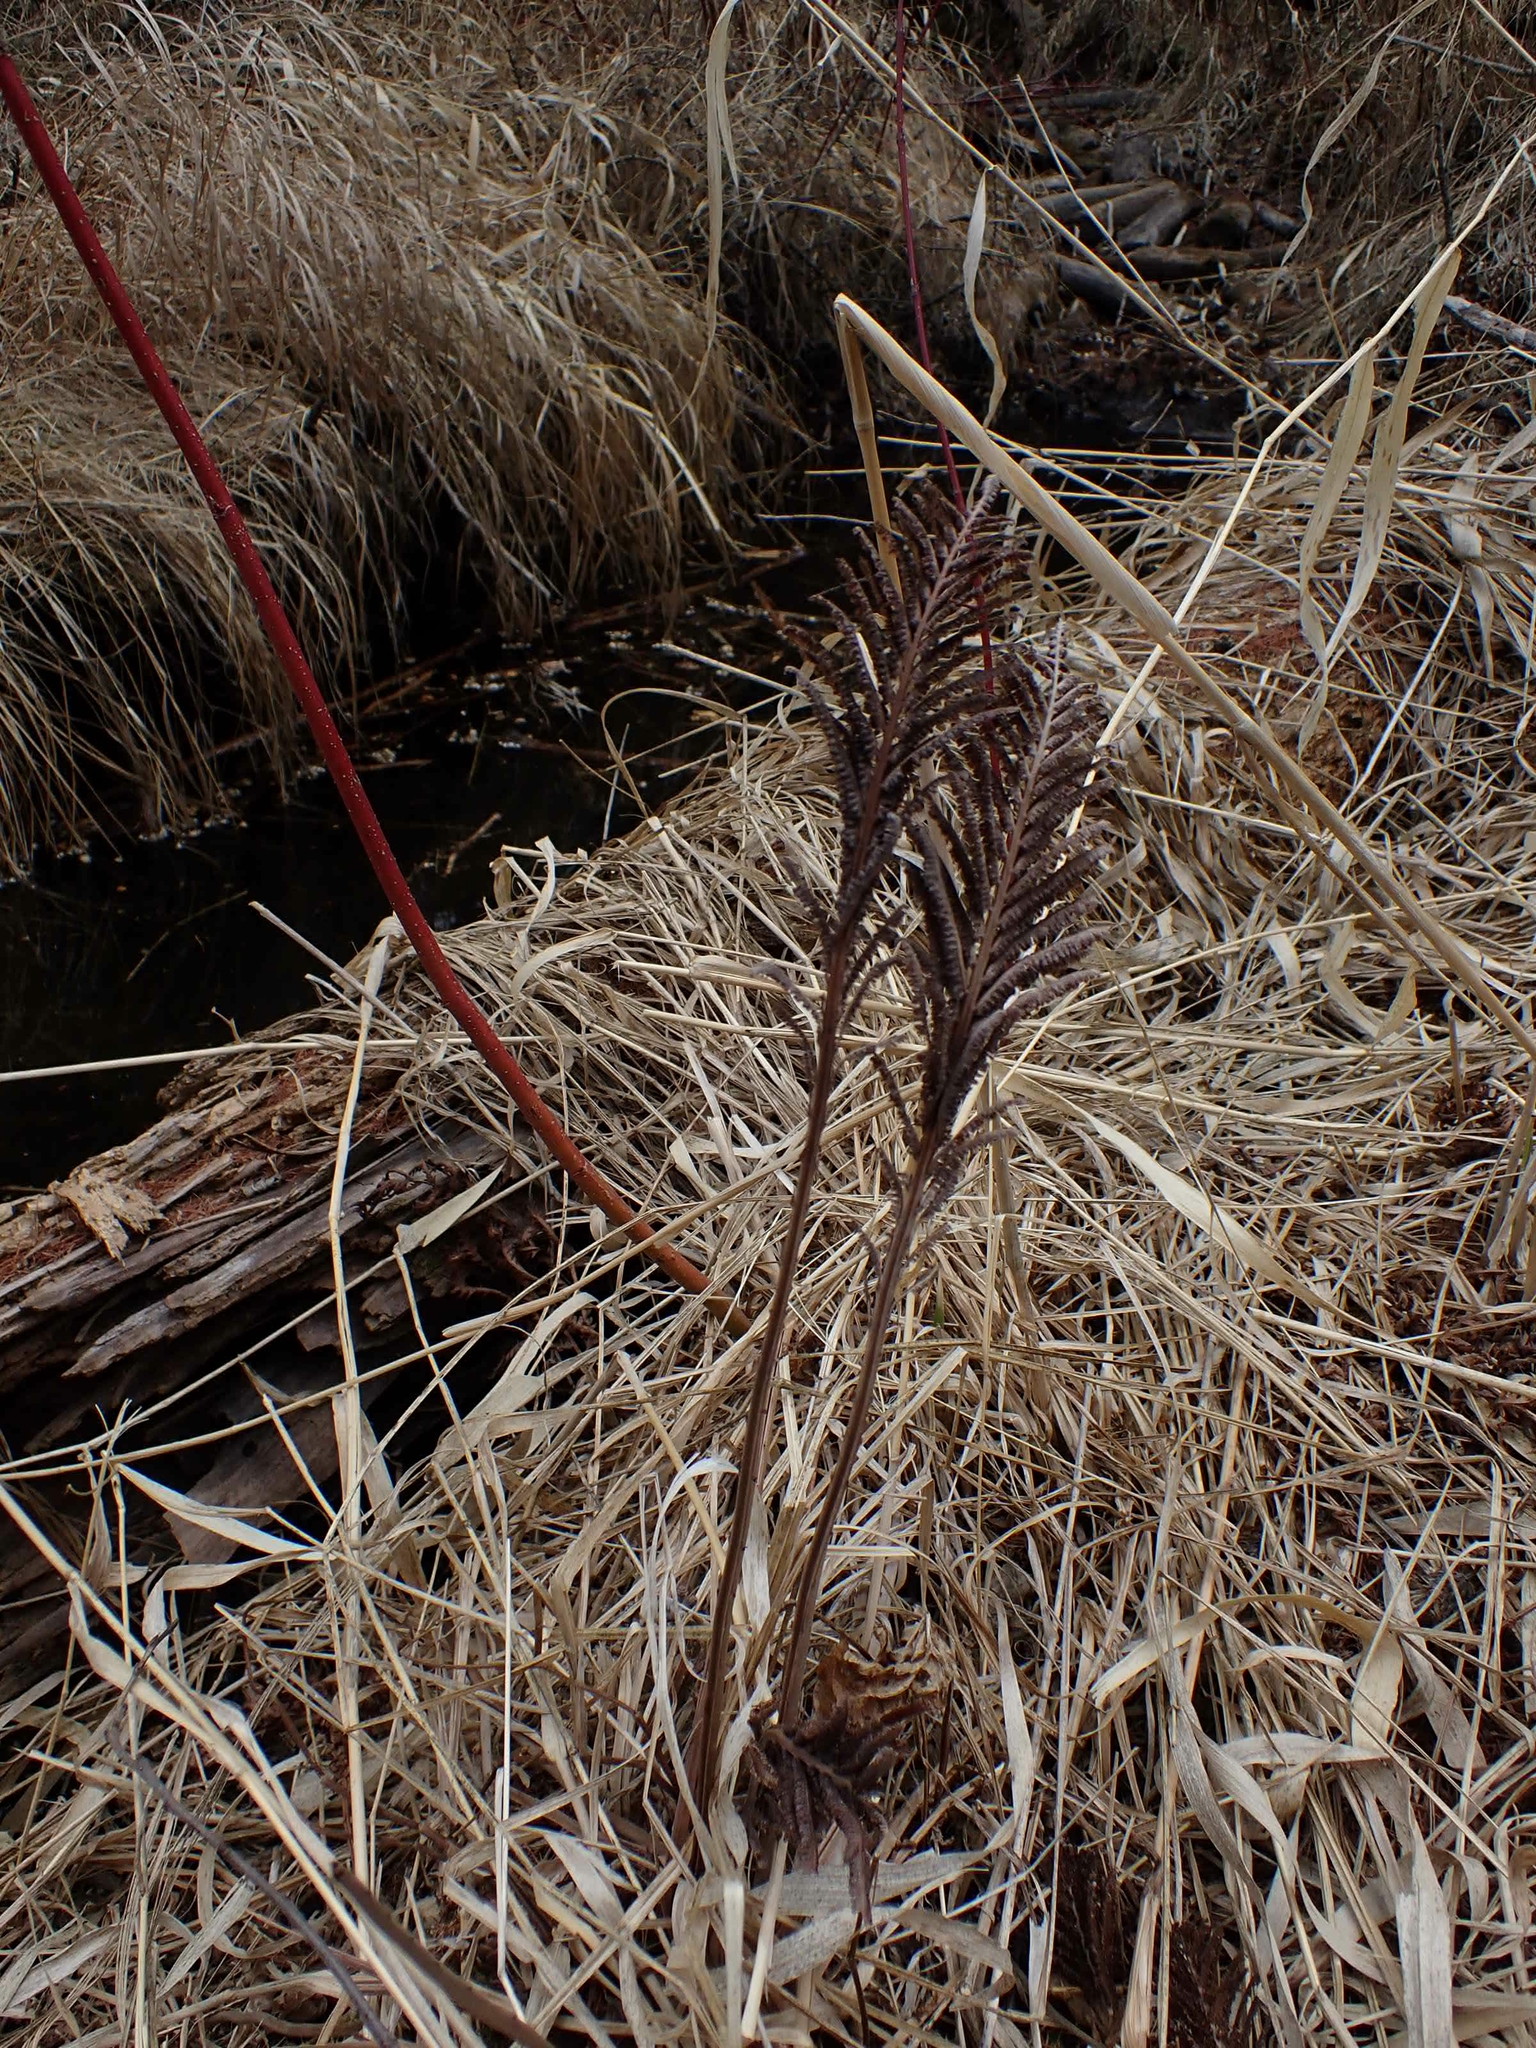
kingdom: Plantae
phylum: Tracheophyta
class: Polypodiopsida
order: Polypodiales
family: Onocleaceae
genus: Matteuccia
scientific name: Matteuccia struthiopteris
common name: Ostrich fern
